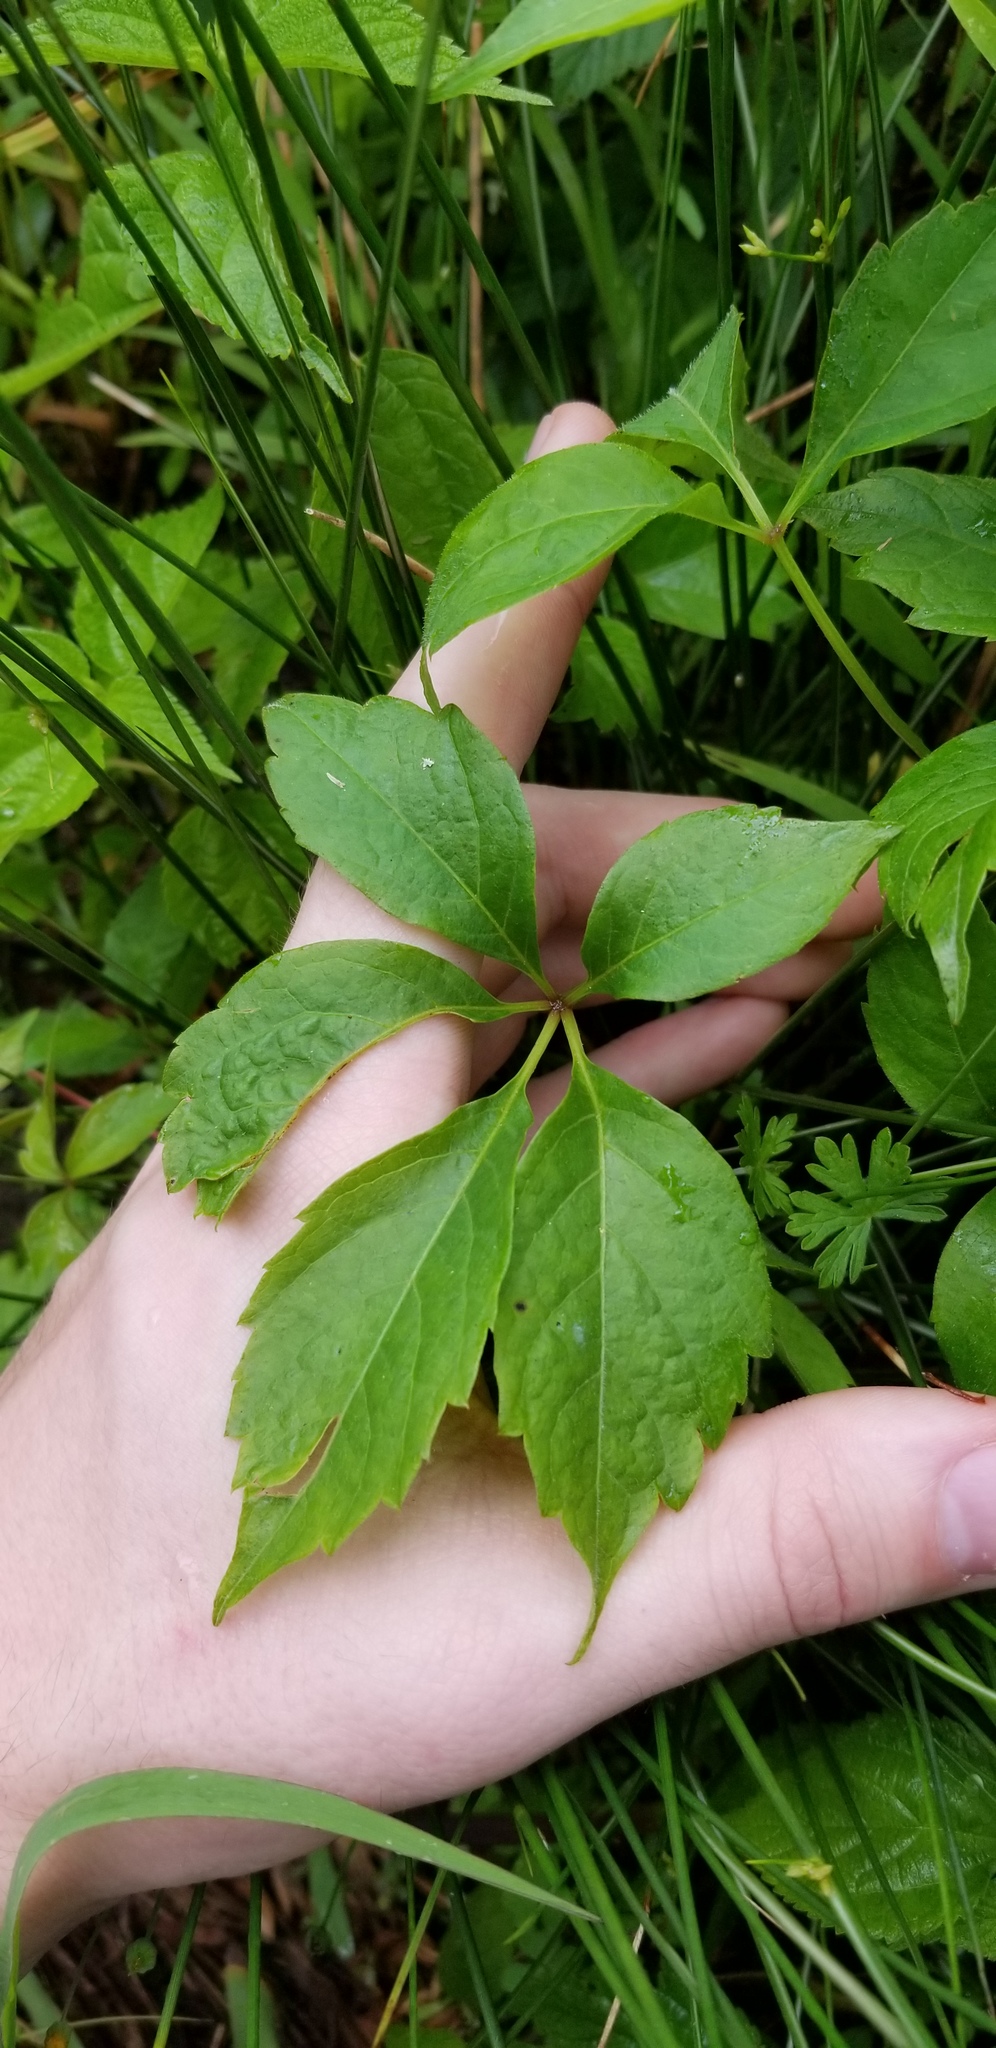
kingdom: Plantae
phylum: Tracheophyta
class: Magnoliopsida
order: Vitales
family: Vitaceae
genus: Parthenocissus
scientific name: Parthenocissus quinquefolia
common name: Virginia-creeper
